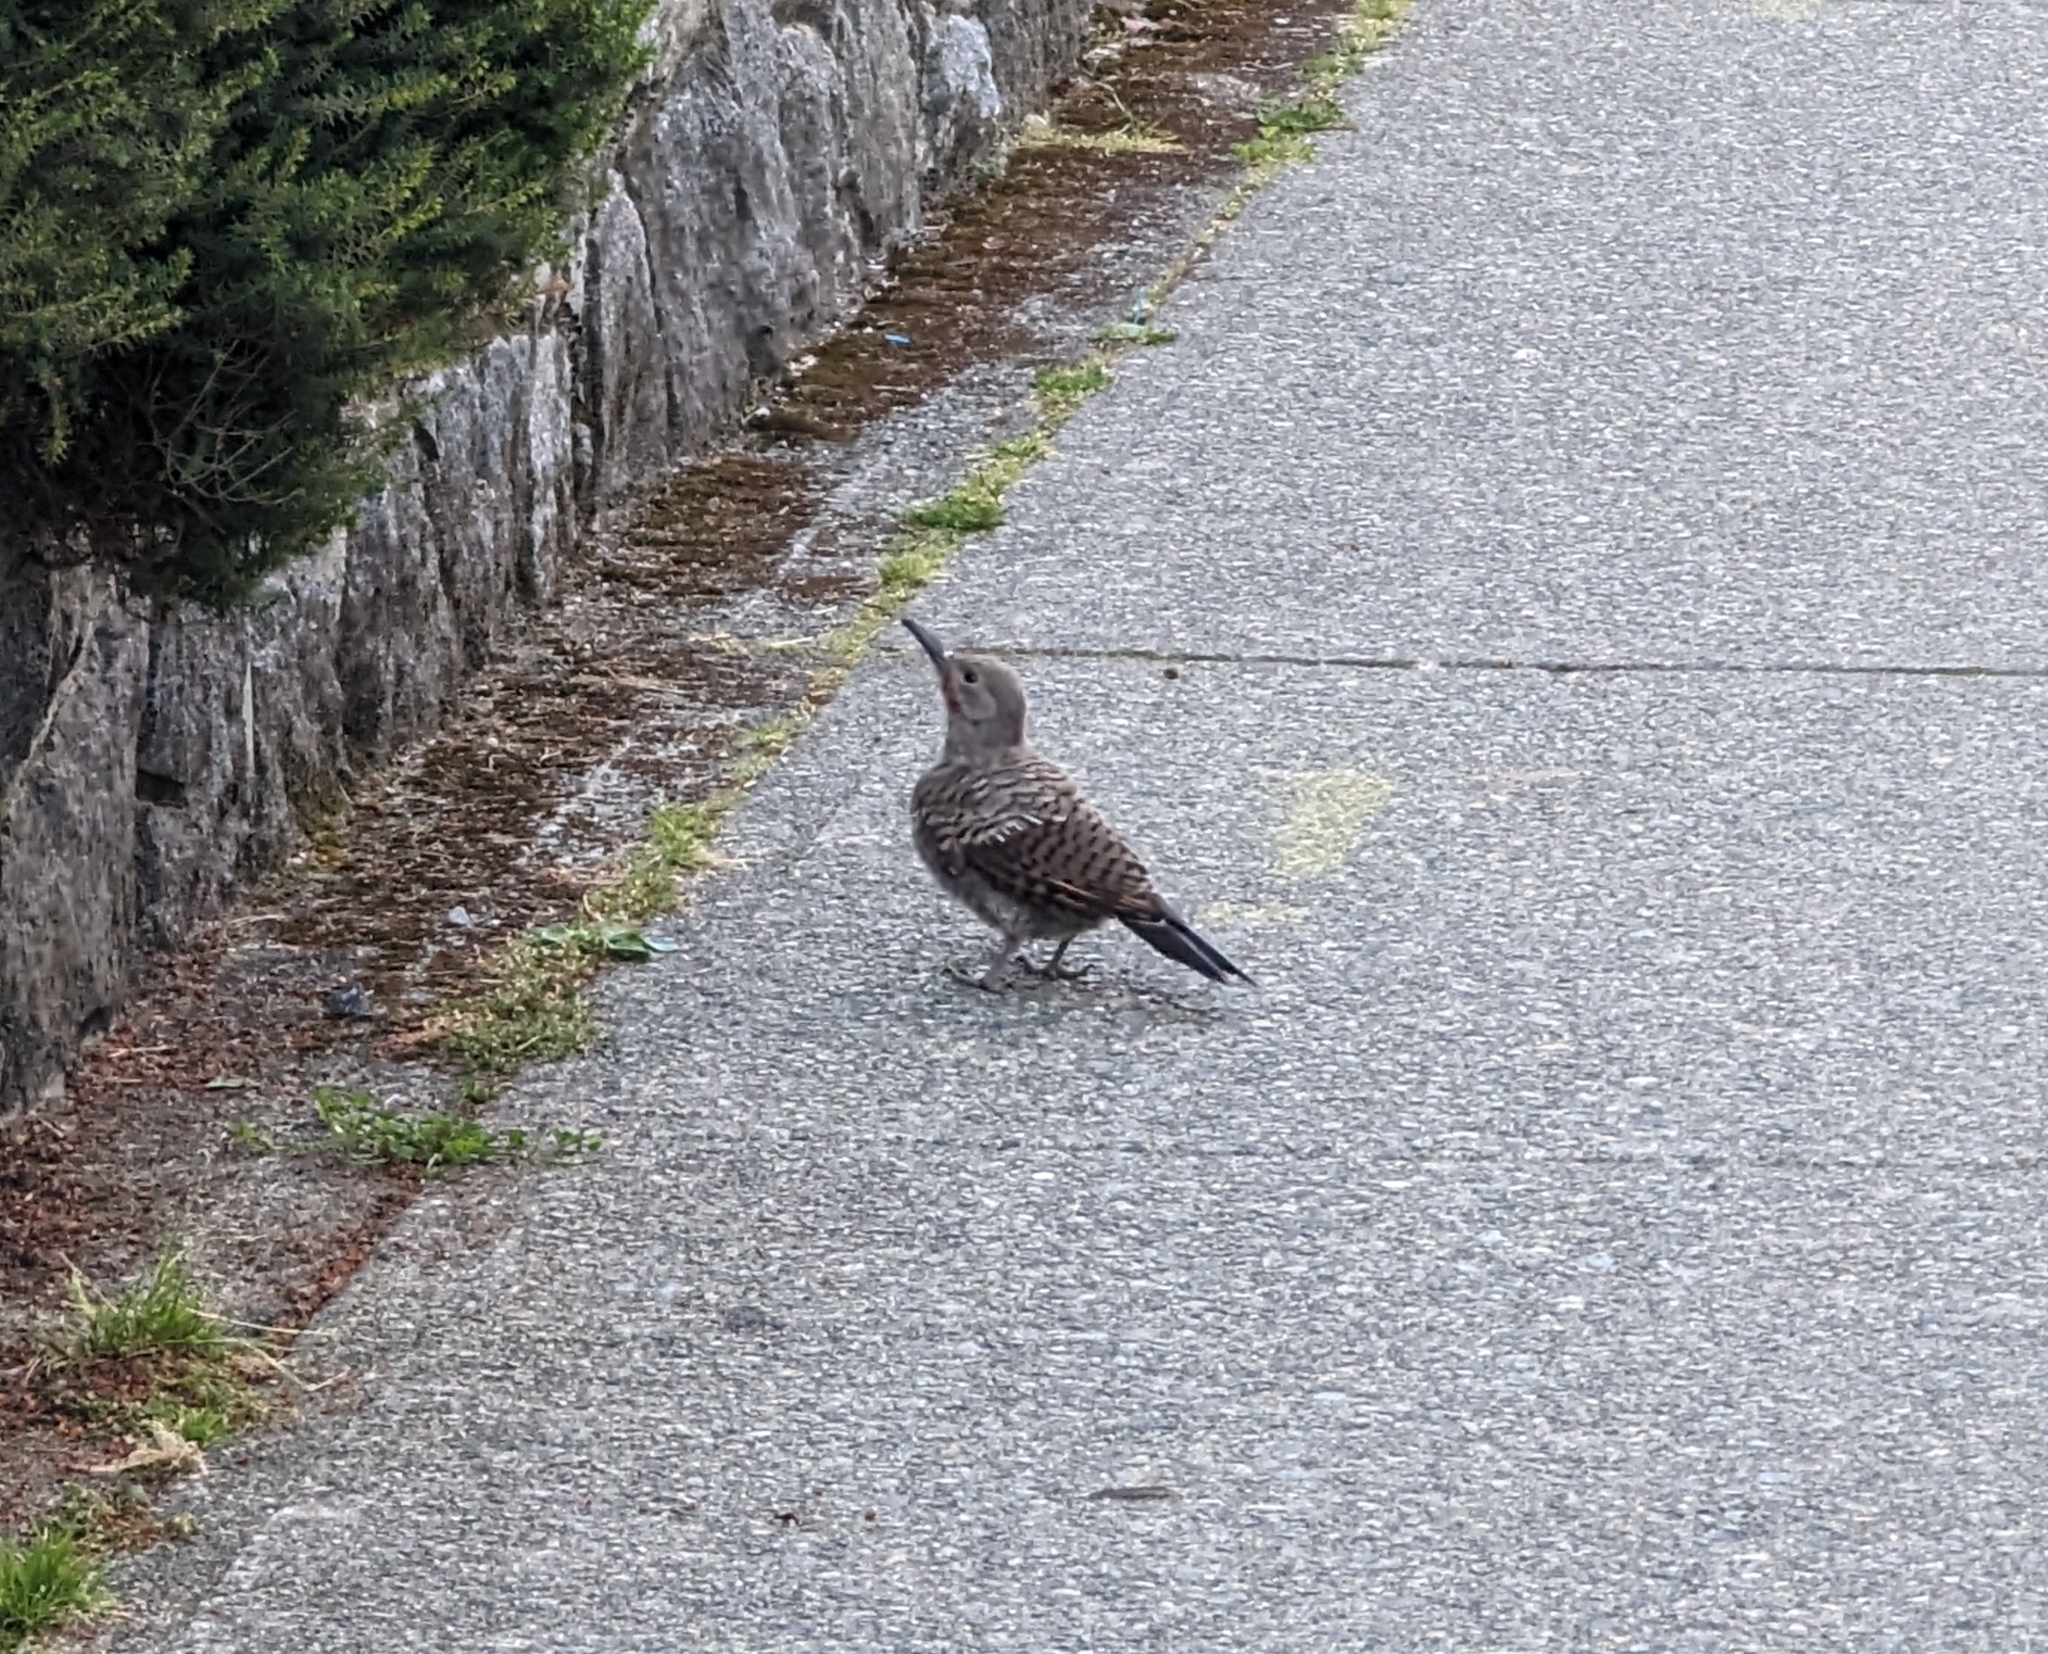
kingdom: Animalia
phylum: Chordata
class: Aves
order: Piciformes
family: Picidae
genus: Colaptes
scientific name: Colaptes auratus
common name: Northern flicker
